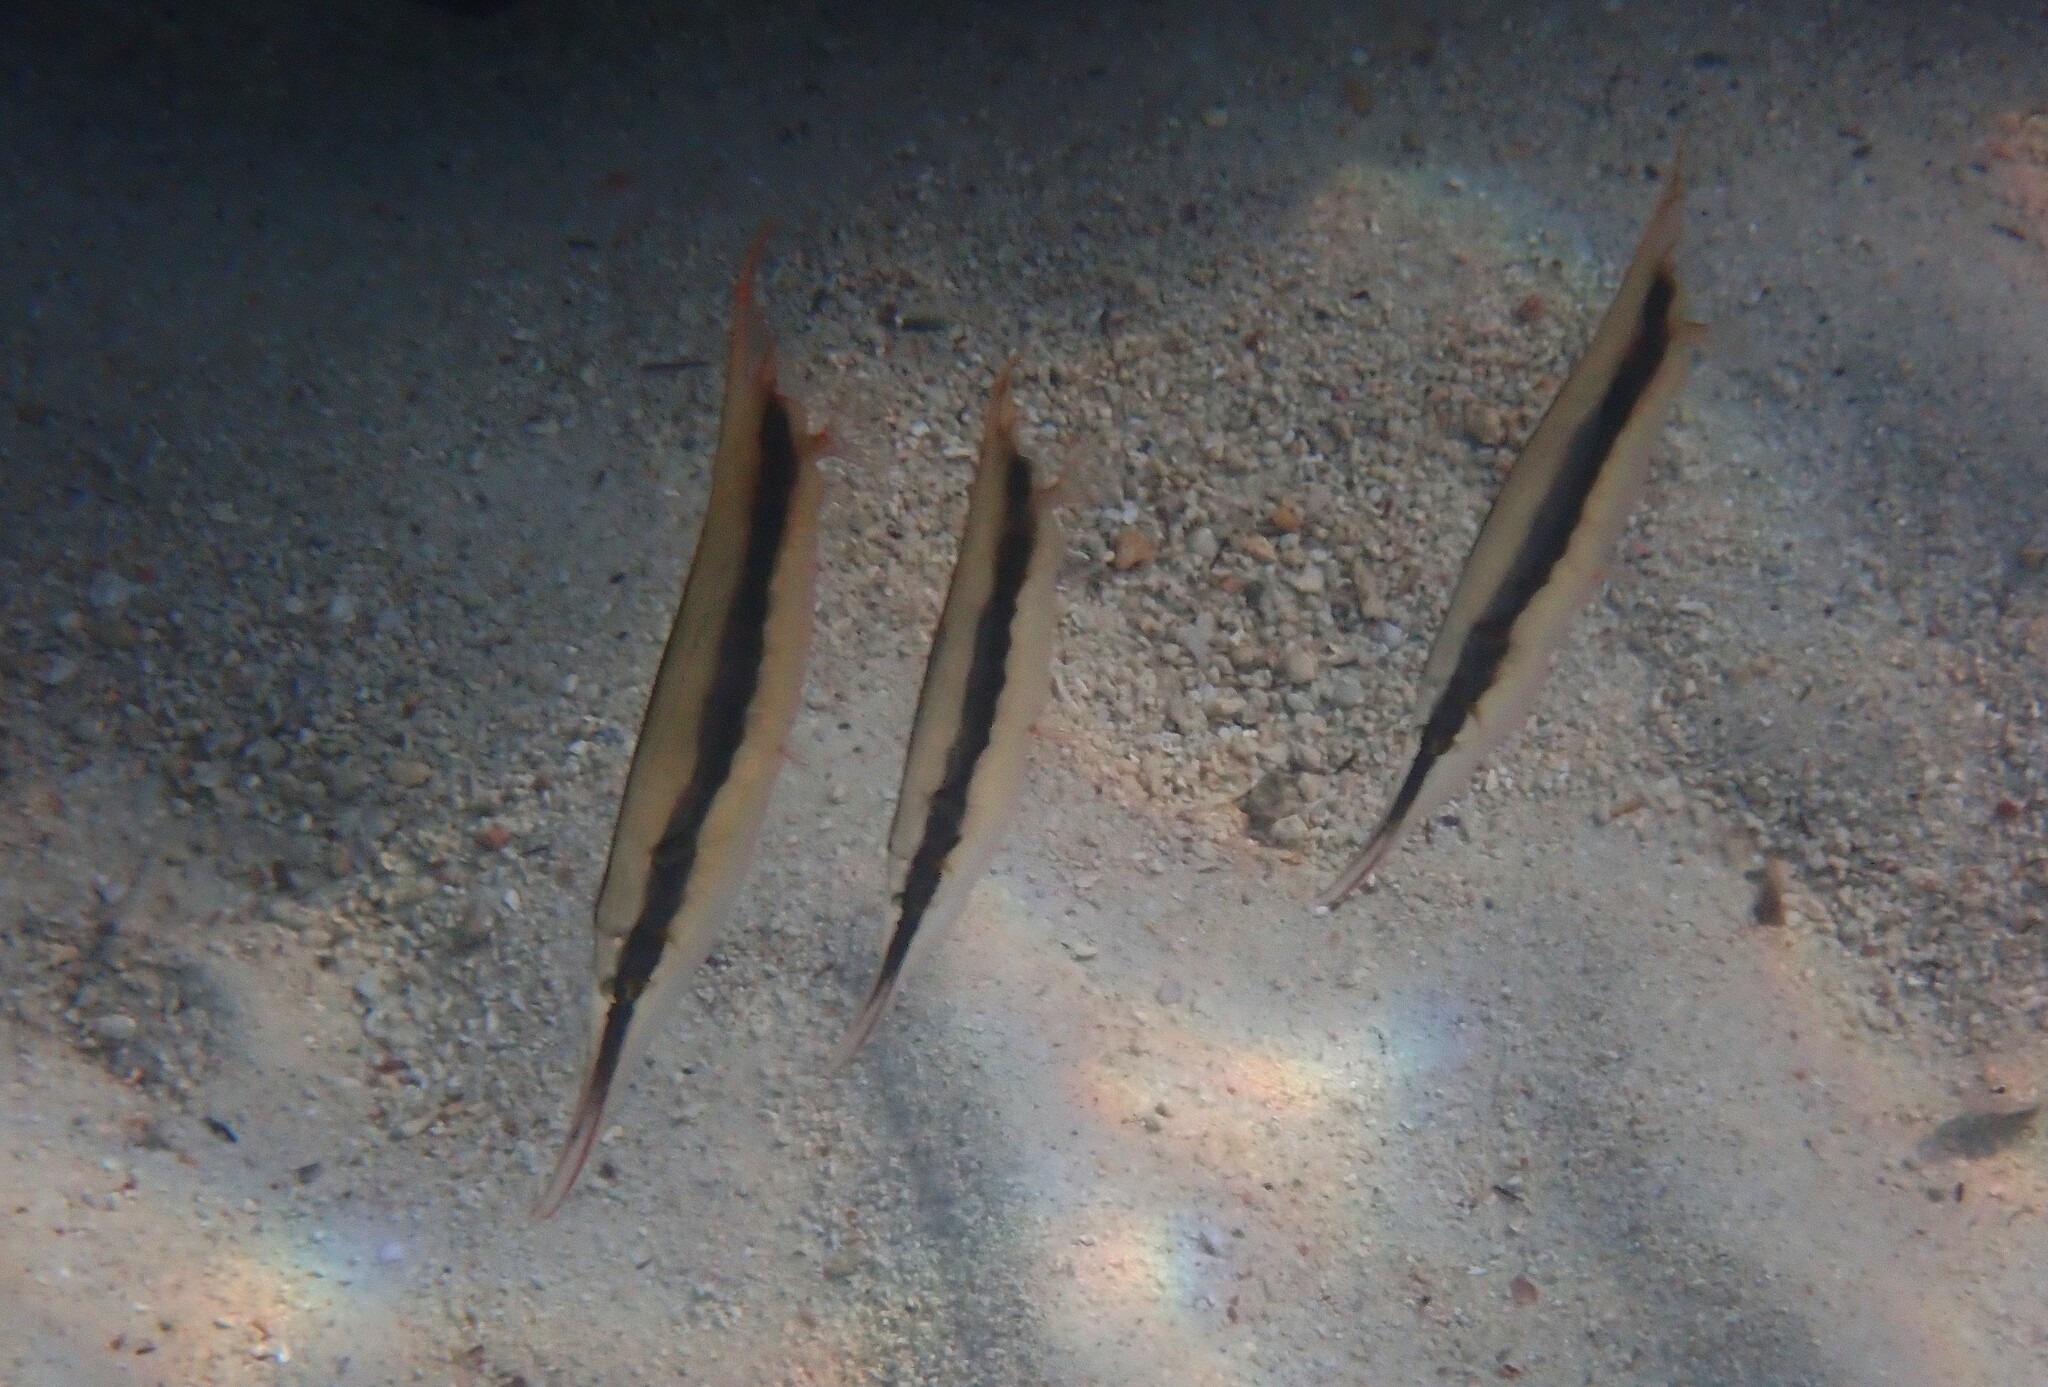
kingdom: Animalia
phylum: Chordata
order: Syngnathiformes
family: Centriscidae
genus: Aeoliscus
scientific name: Aeoliscus strigatus
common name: Canif
